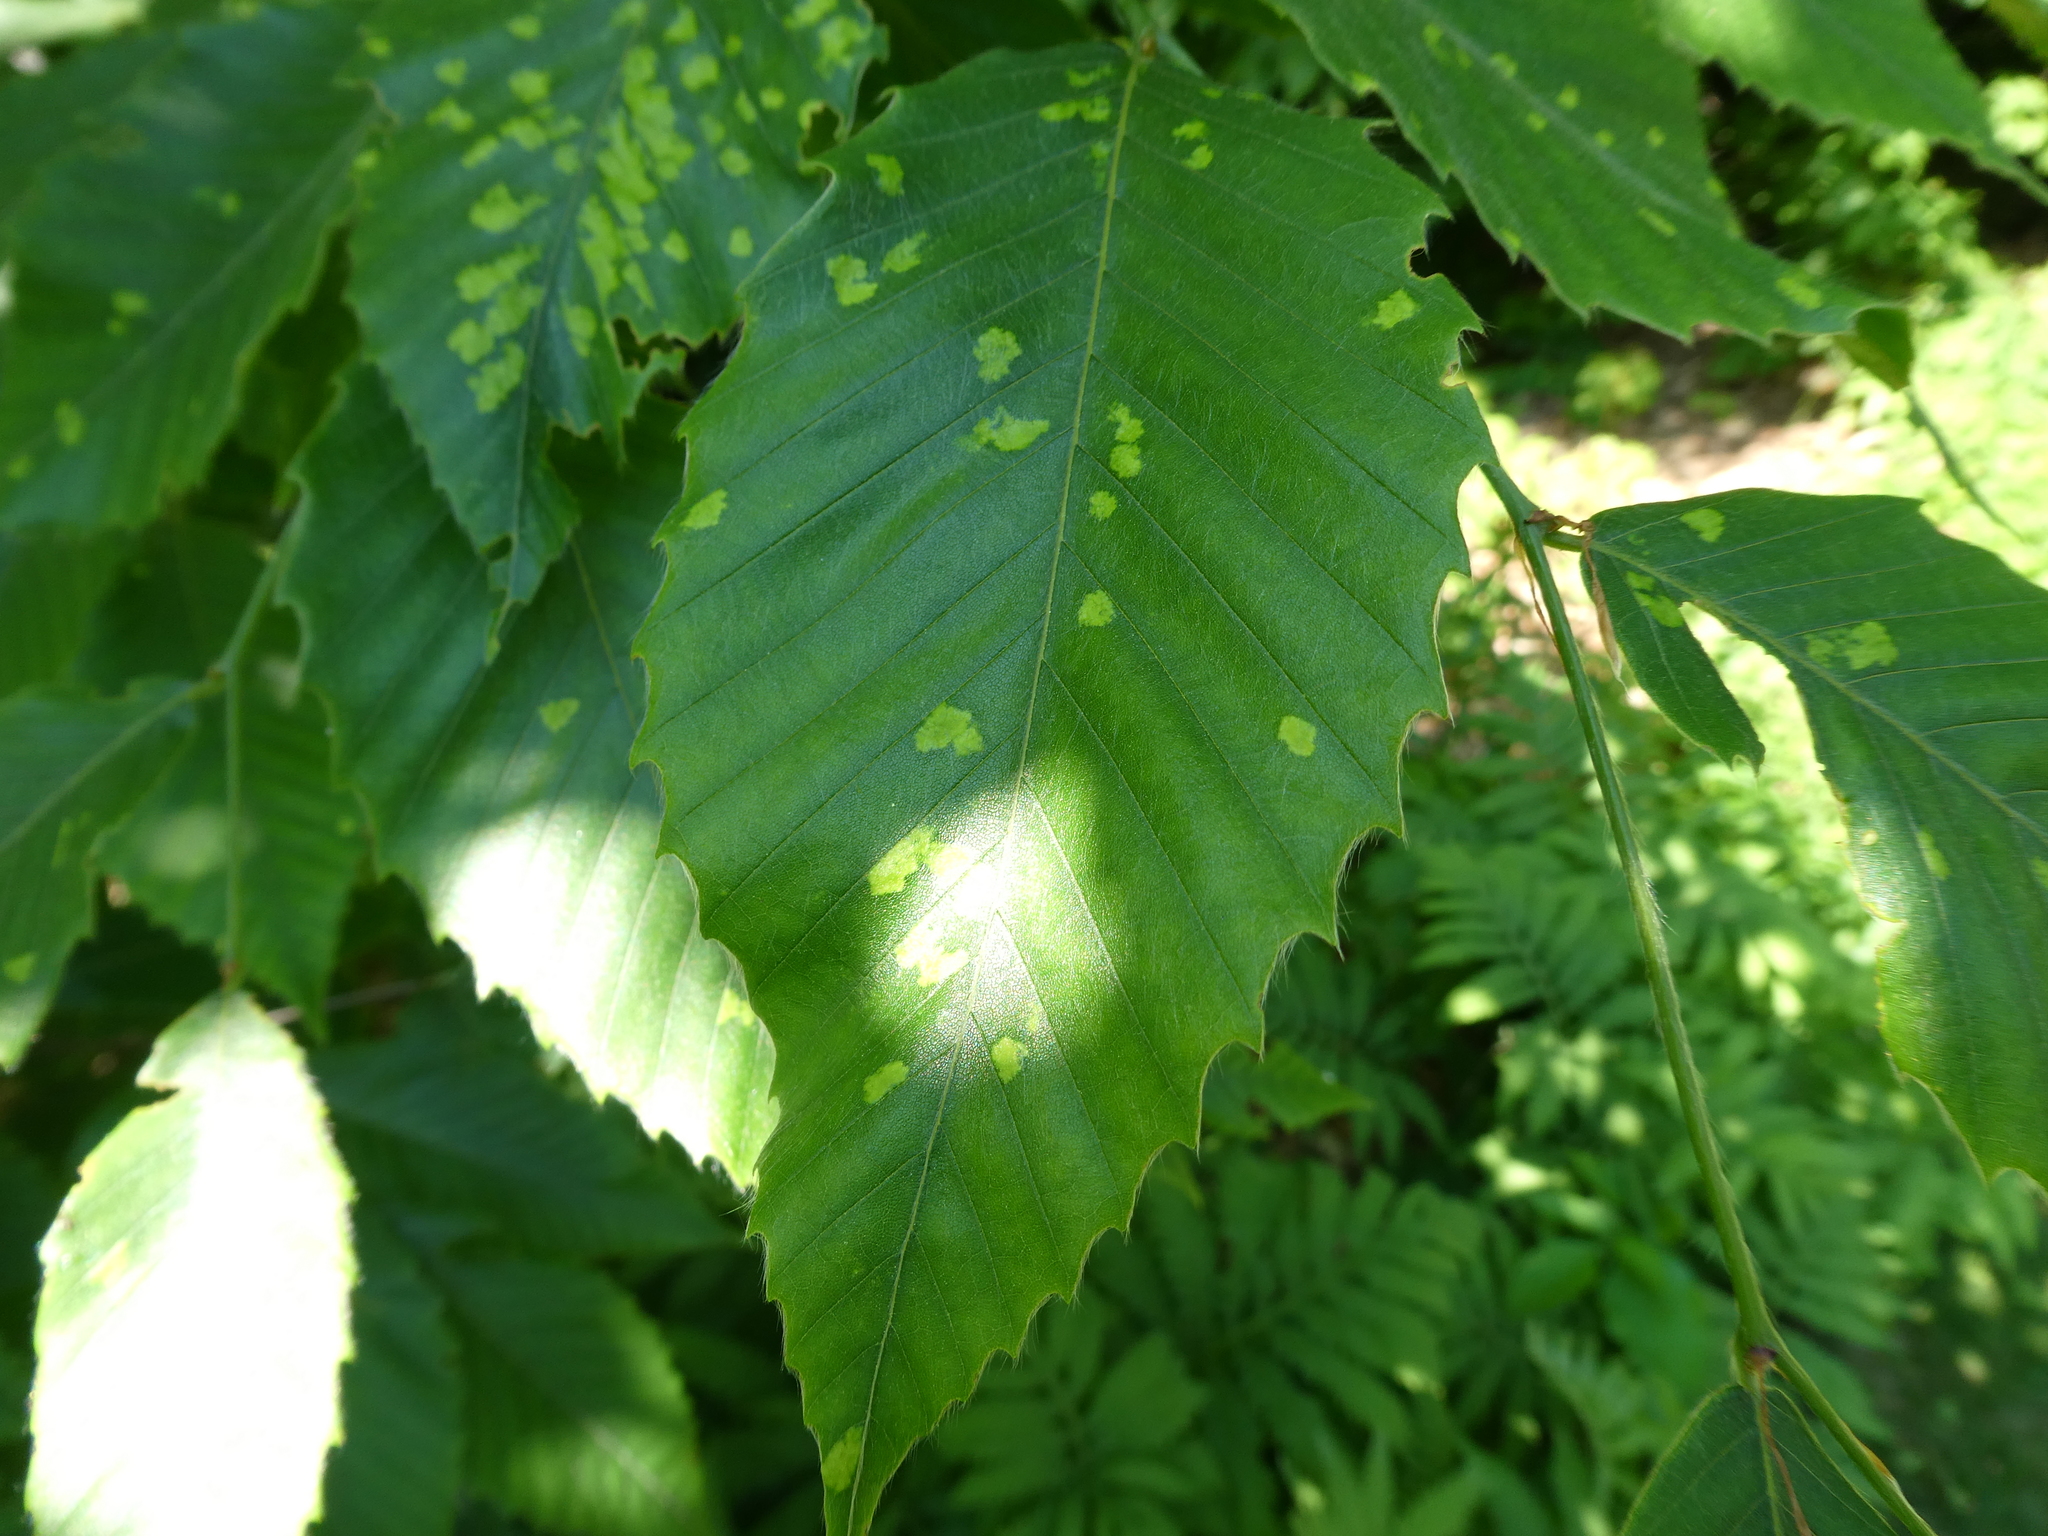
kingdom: Plantae
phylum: Tracheophyta
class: Magnoliopsida
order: Fagales
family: Fagaceae
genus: Fagus
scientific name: Fagus grandifolia
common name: American beech
